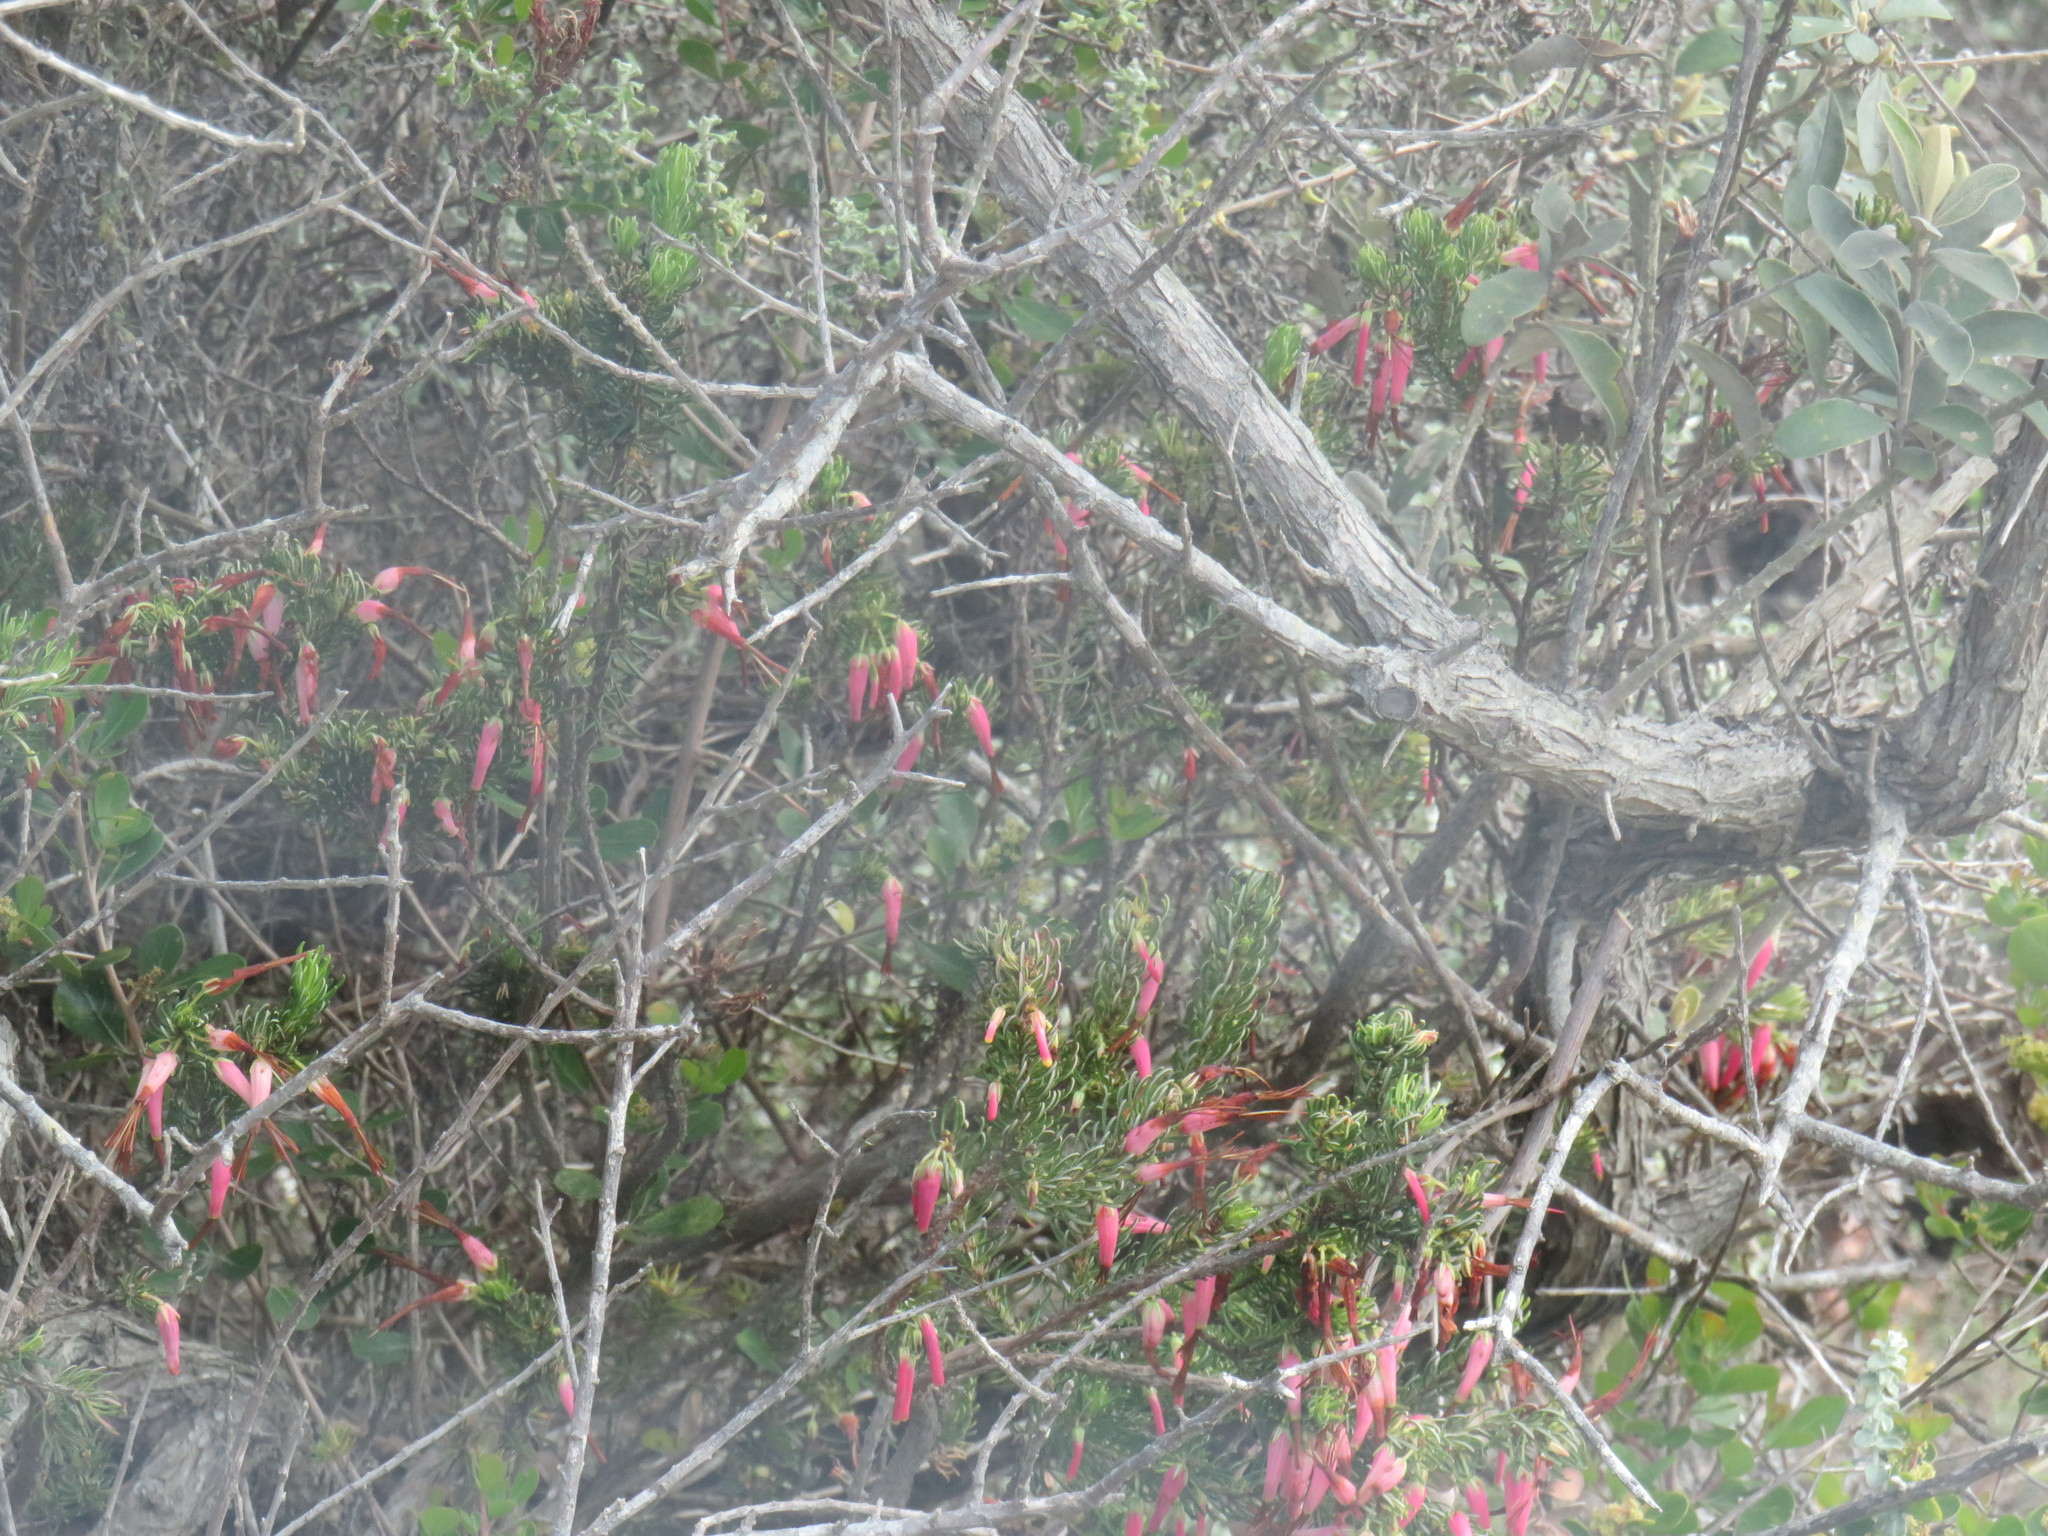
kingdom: Plantae
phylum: Tracheophyta
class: Magnoliopsida
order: Ericales
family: Ericaceae
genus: Erica
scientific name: Erica plukenetii
